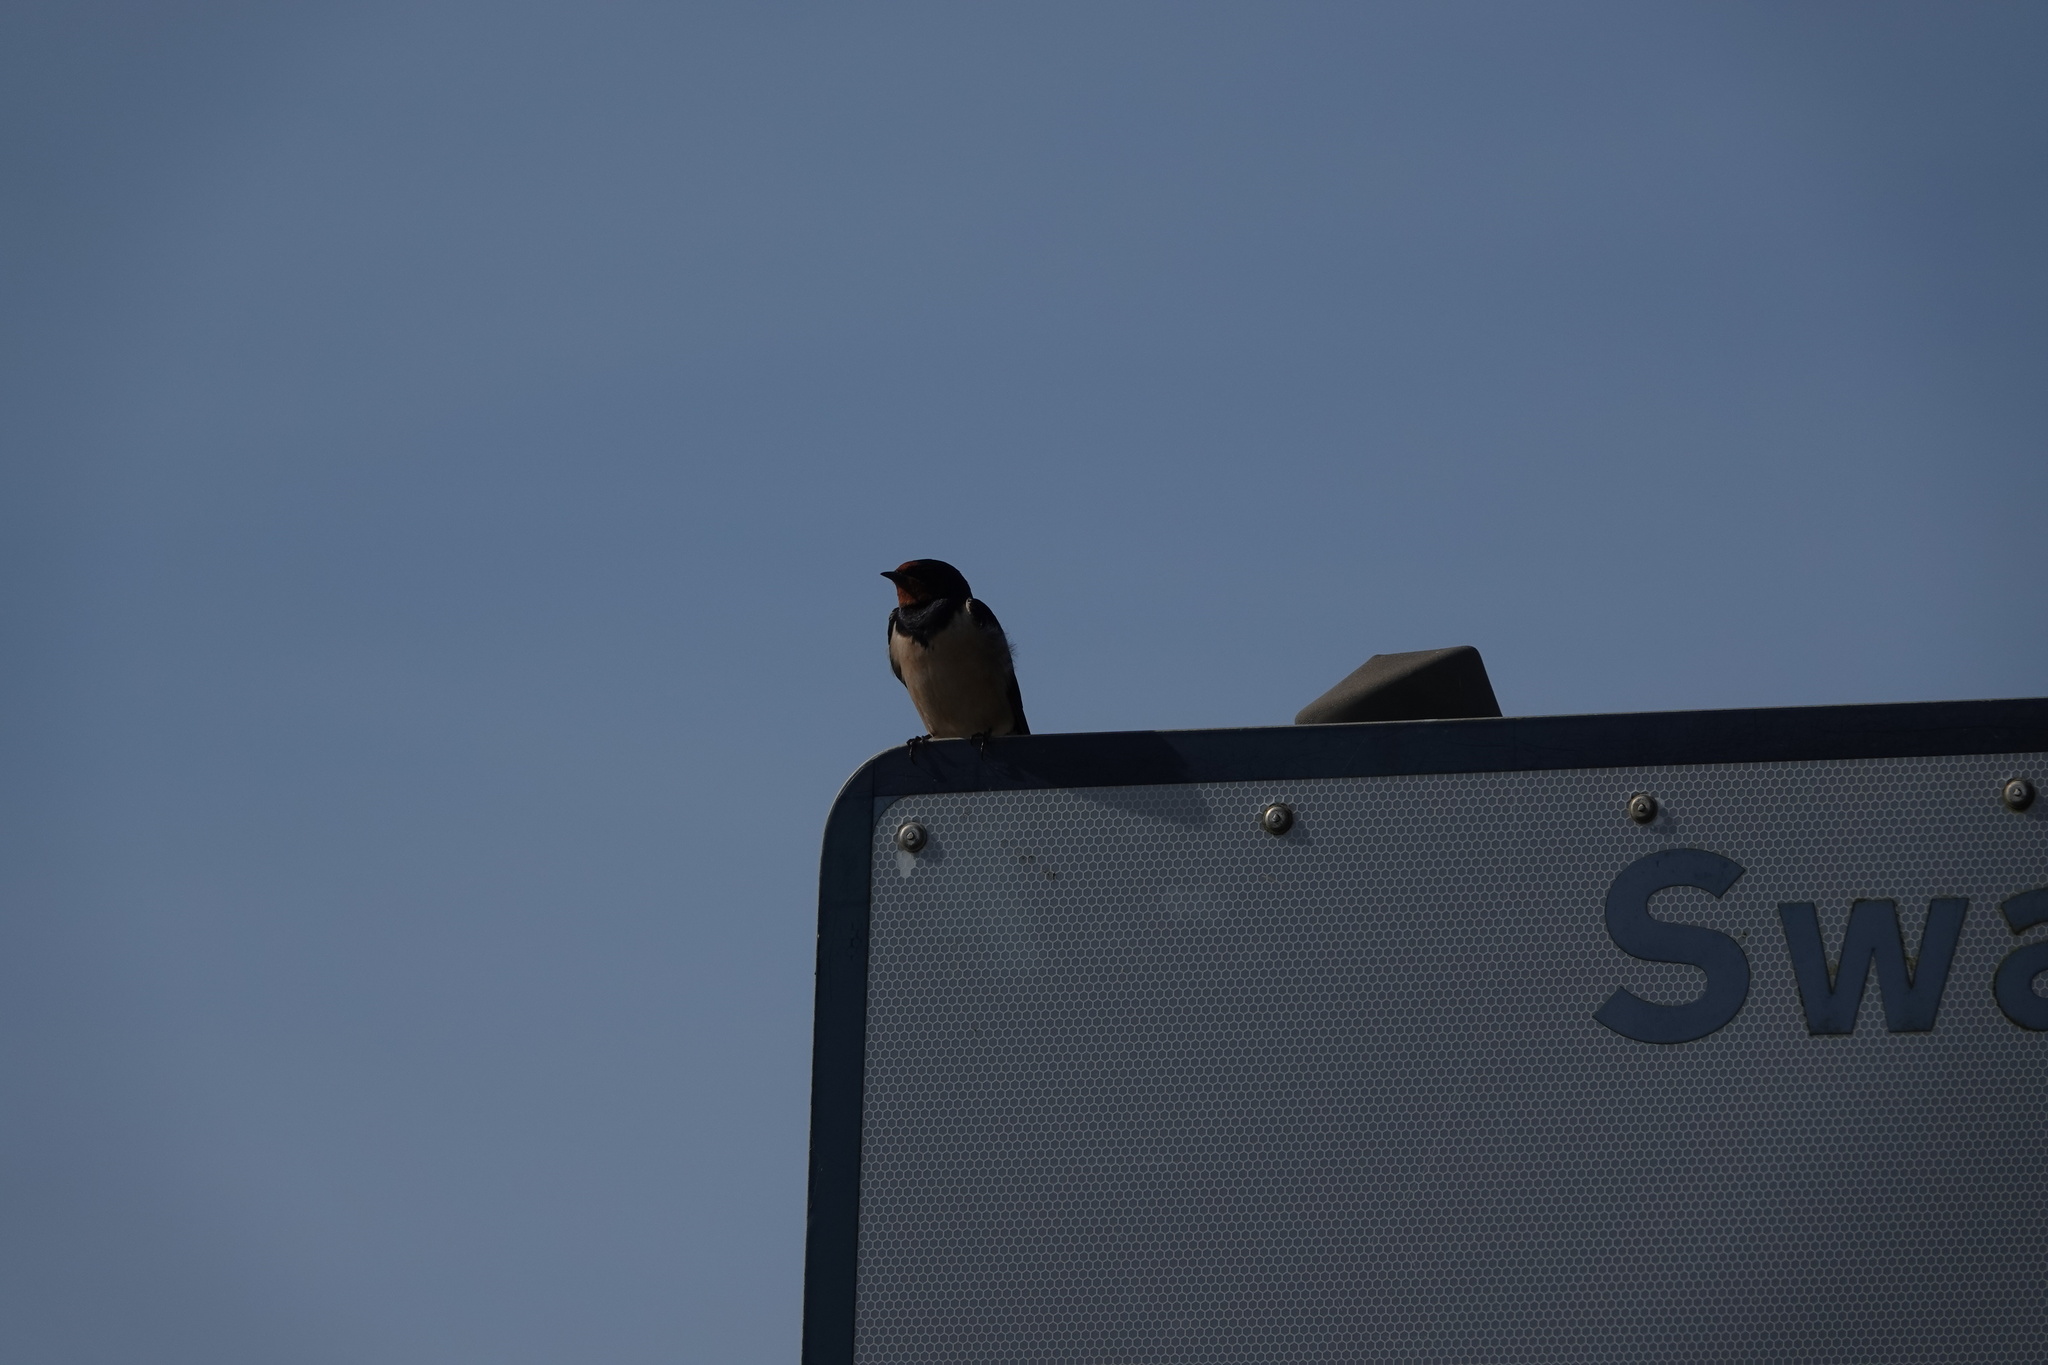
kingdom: Animalia
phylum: Chordata
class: Aves
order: Passeriformes
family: Hirundinidae
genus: Hirundo
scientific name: Hirundo rustica
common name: Barn swallow
